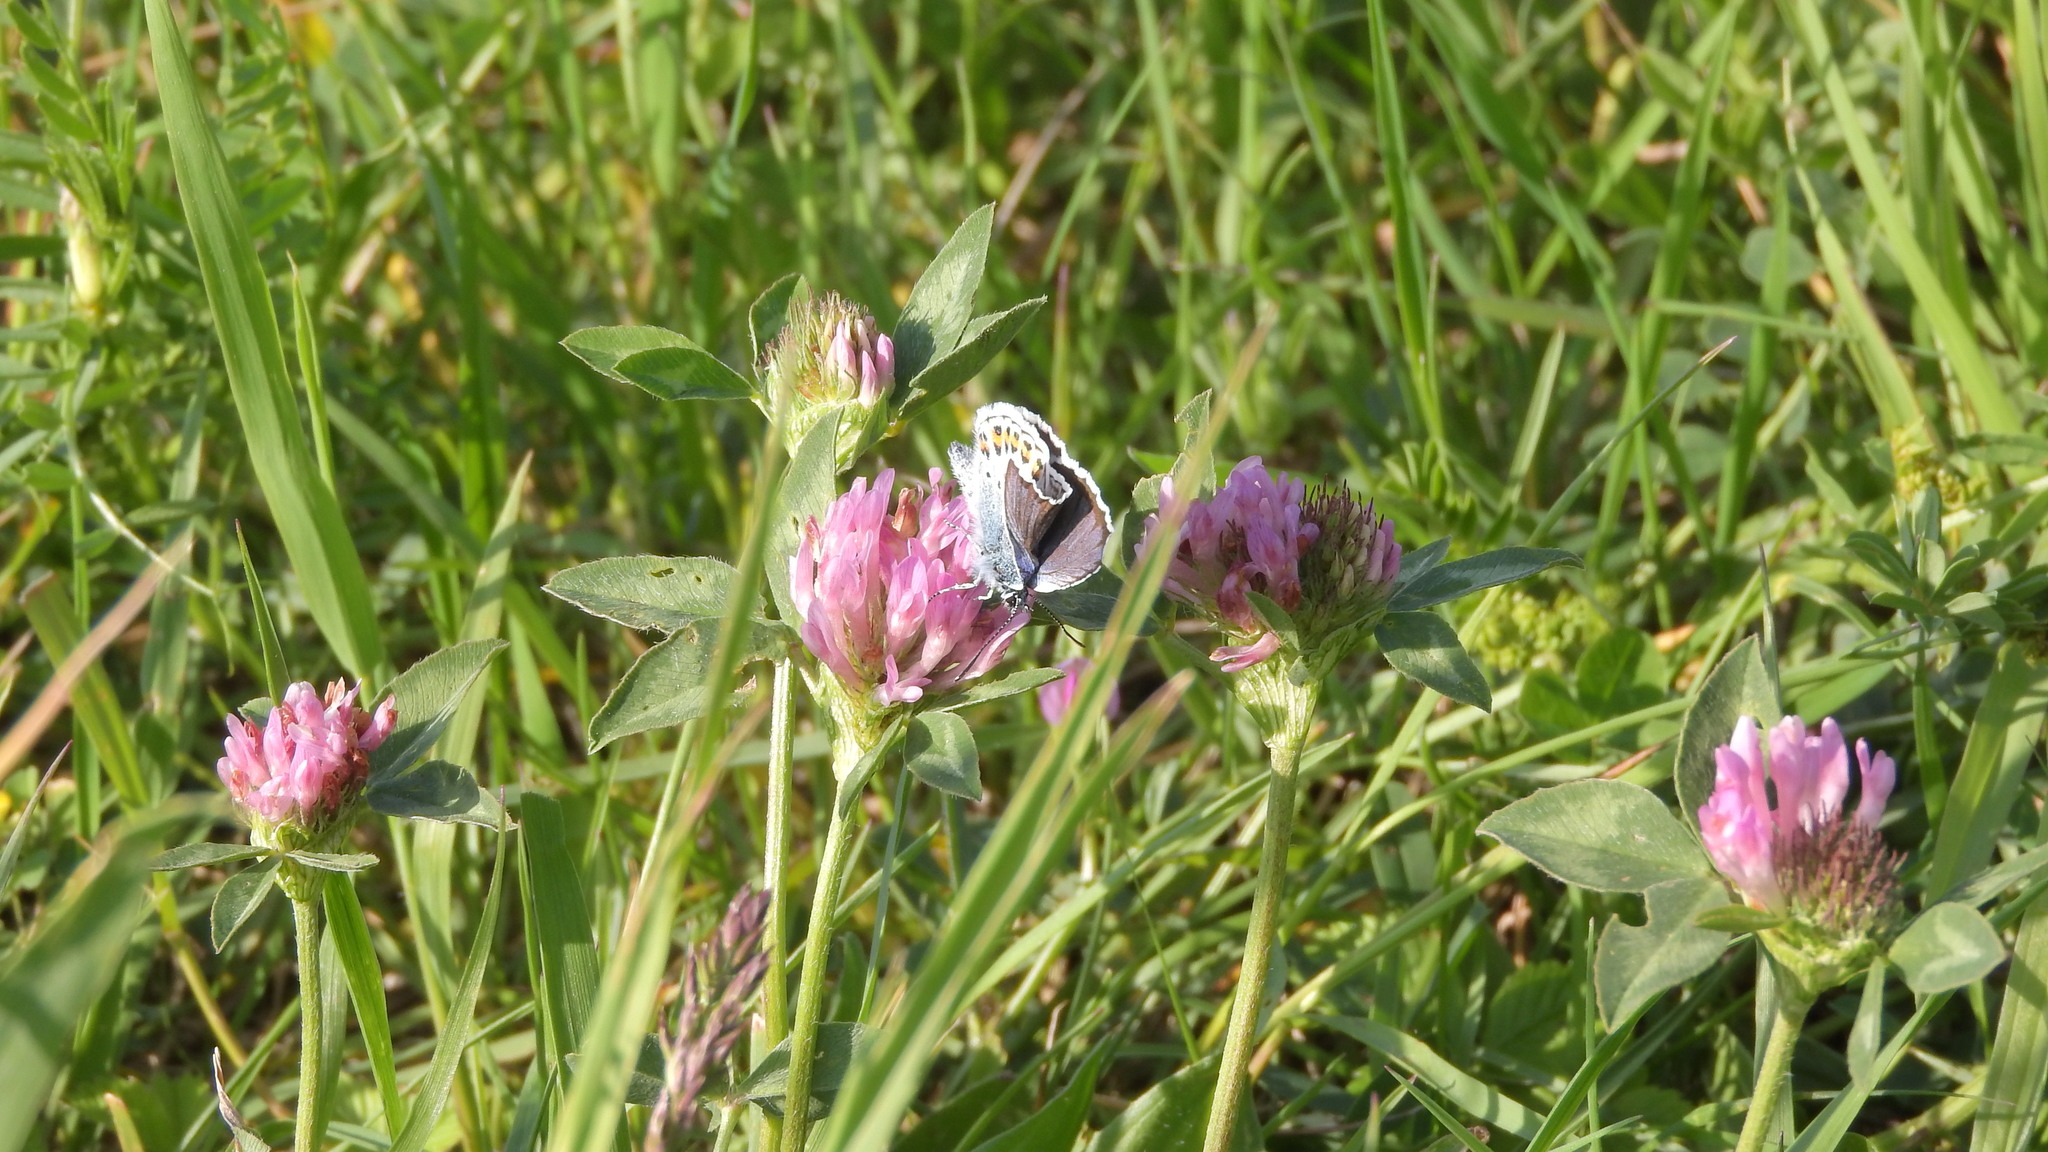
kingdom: Animalia
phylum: Arthropoda
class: Insecta
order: Lepidoptera
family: Lycaenidae
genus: Plebejus
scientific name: Plebejus argus
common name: Silver-studded blue
